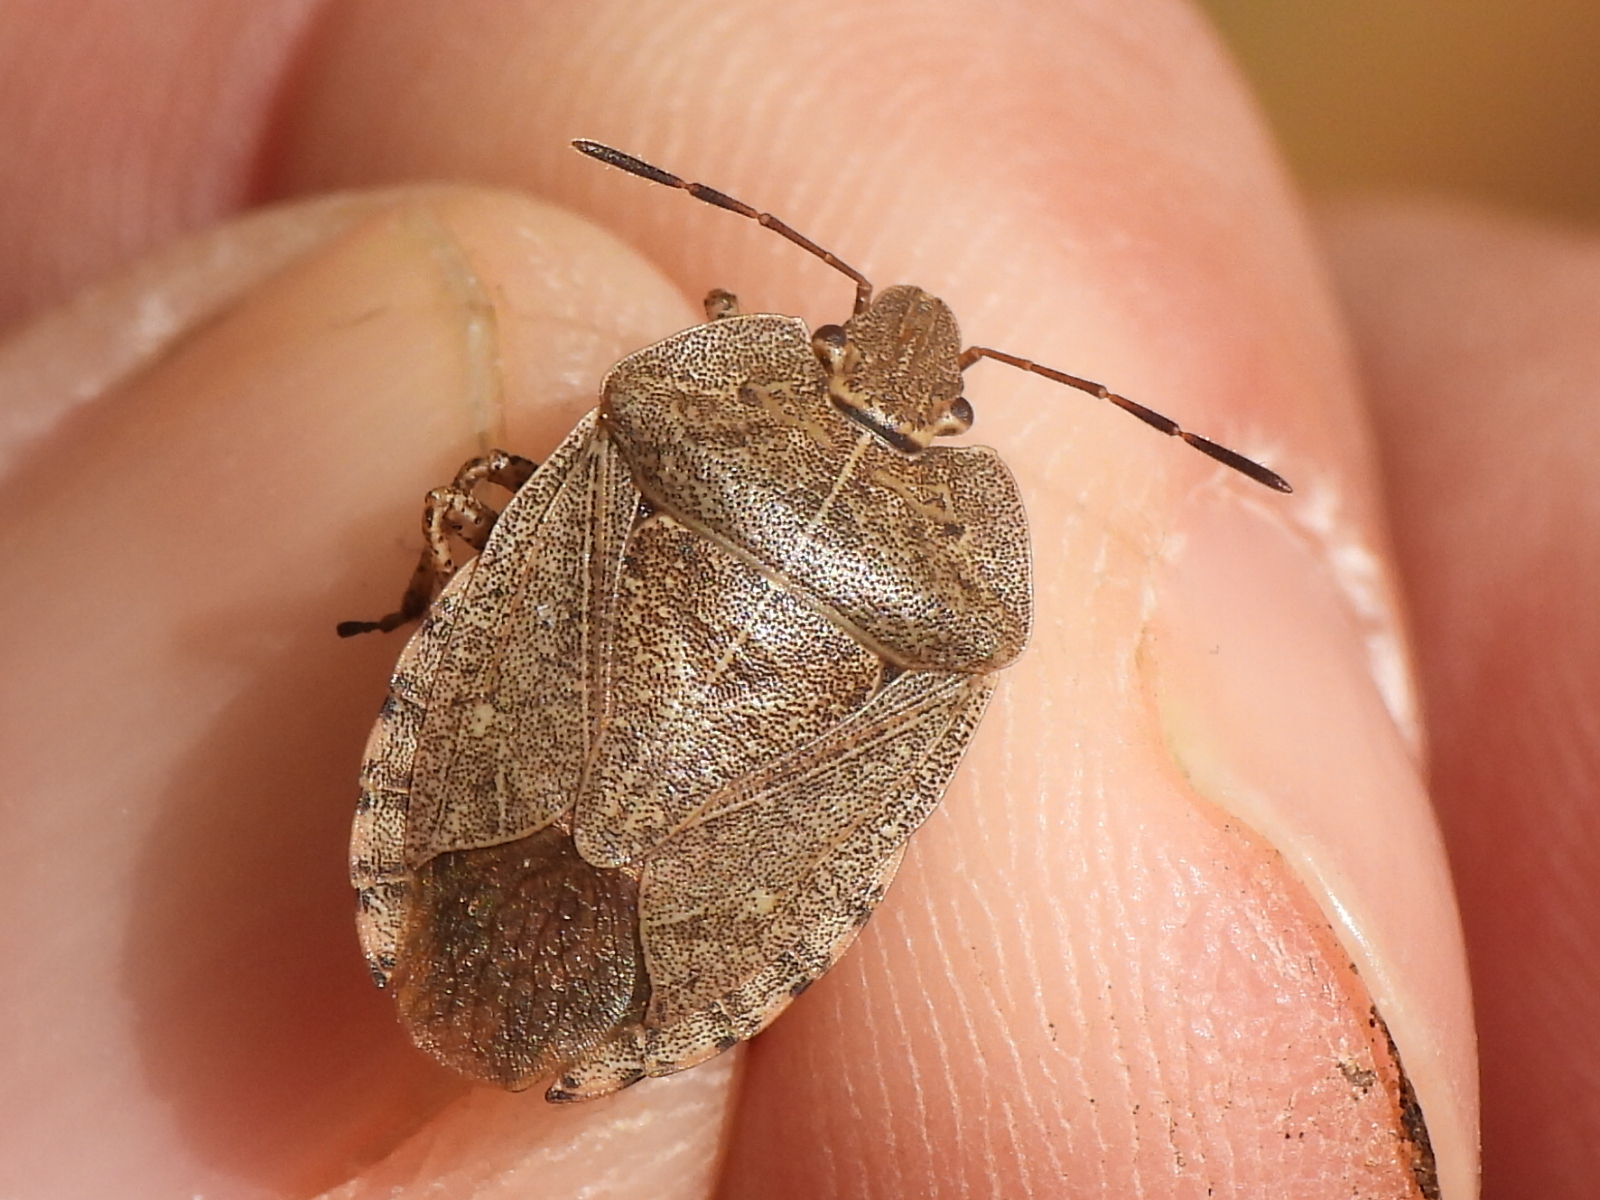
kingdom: Animalia
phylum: Arthropoda
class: Insecta
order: Hemiptera
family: Pentatomidae
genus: Menecles
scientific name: Menecles insertus
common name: Elf shoe stink bug
